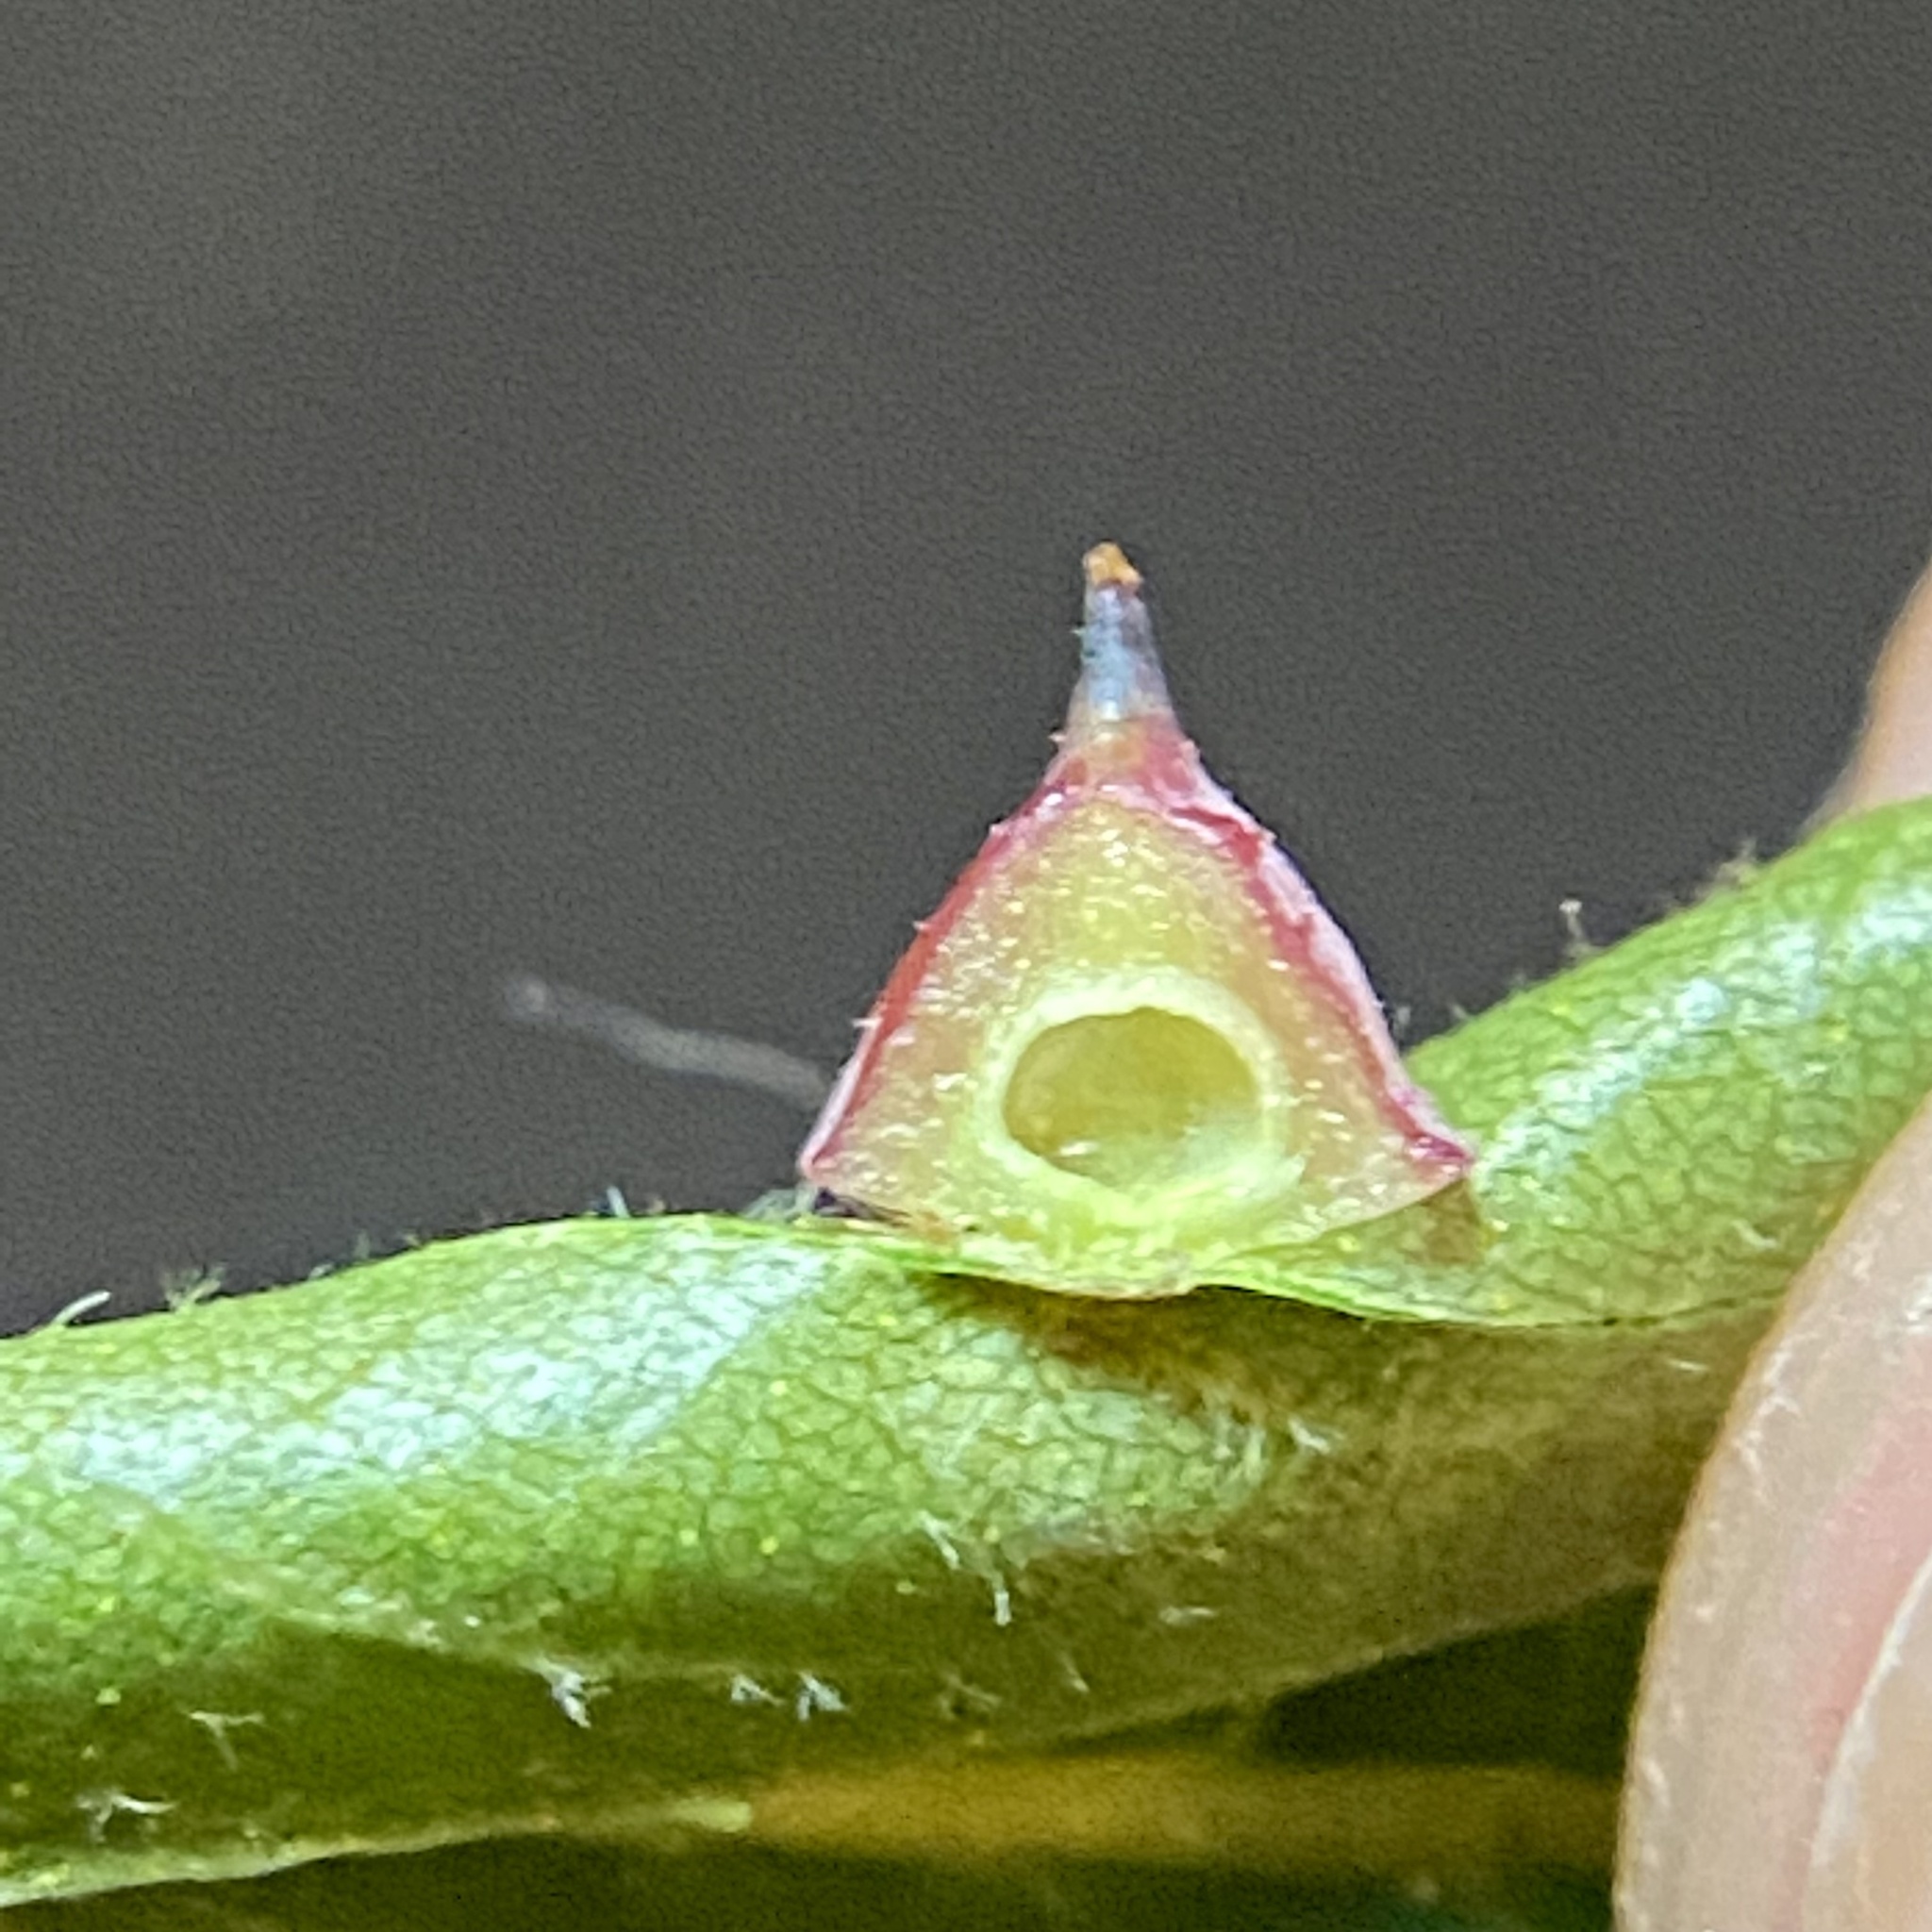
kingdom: Animalia
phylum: Arthropoda
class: Insecta
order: Diptera
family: Cecidomyiidae
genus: Caryomyia
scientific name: Caryomyia sanguinolenta
